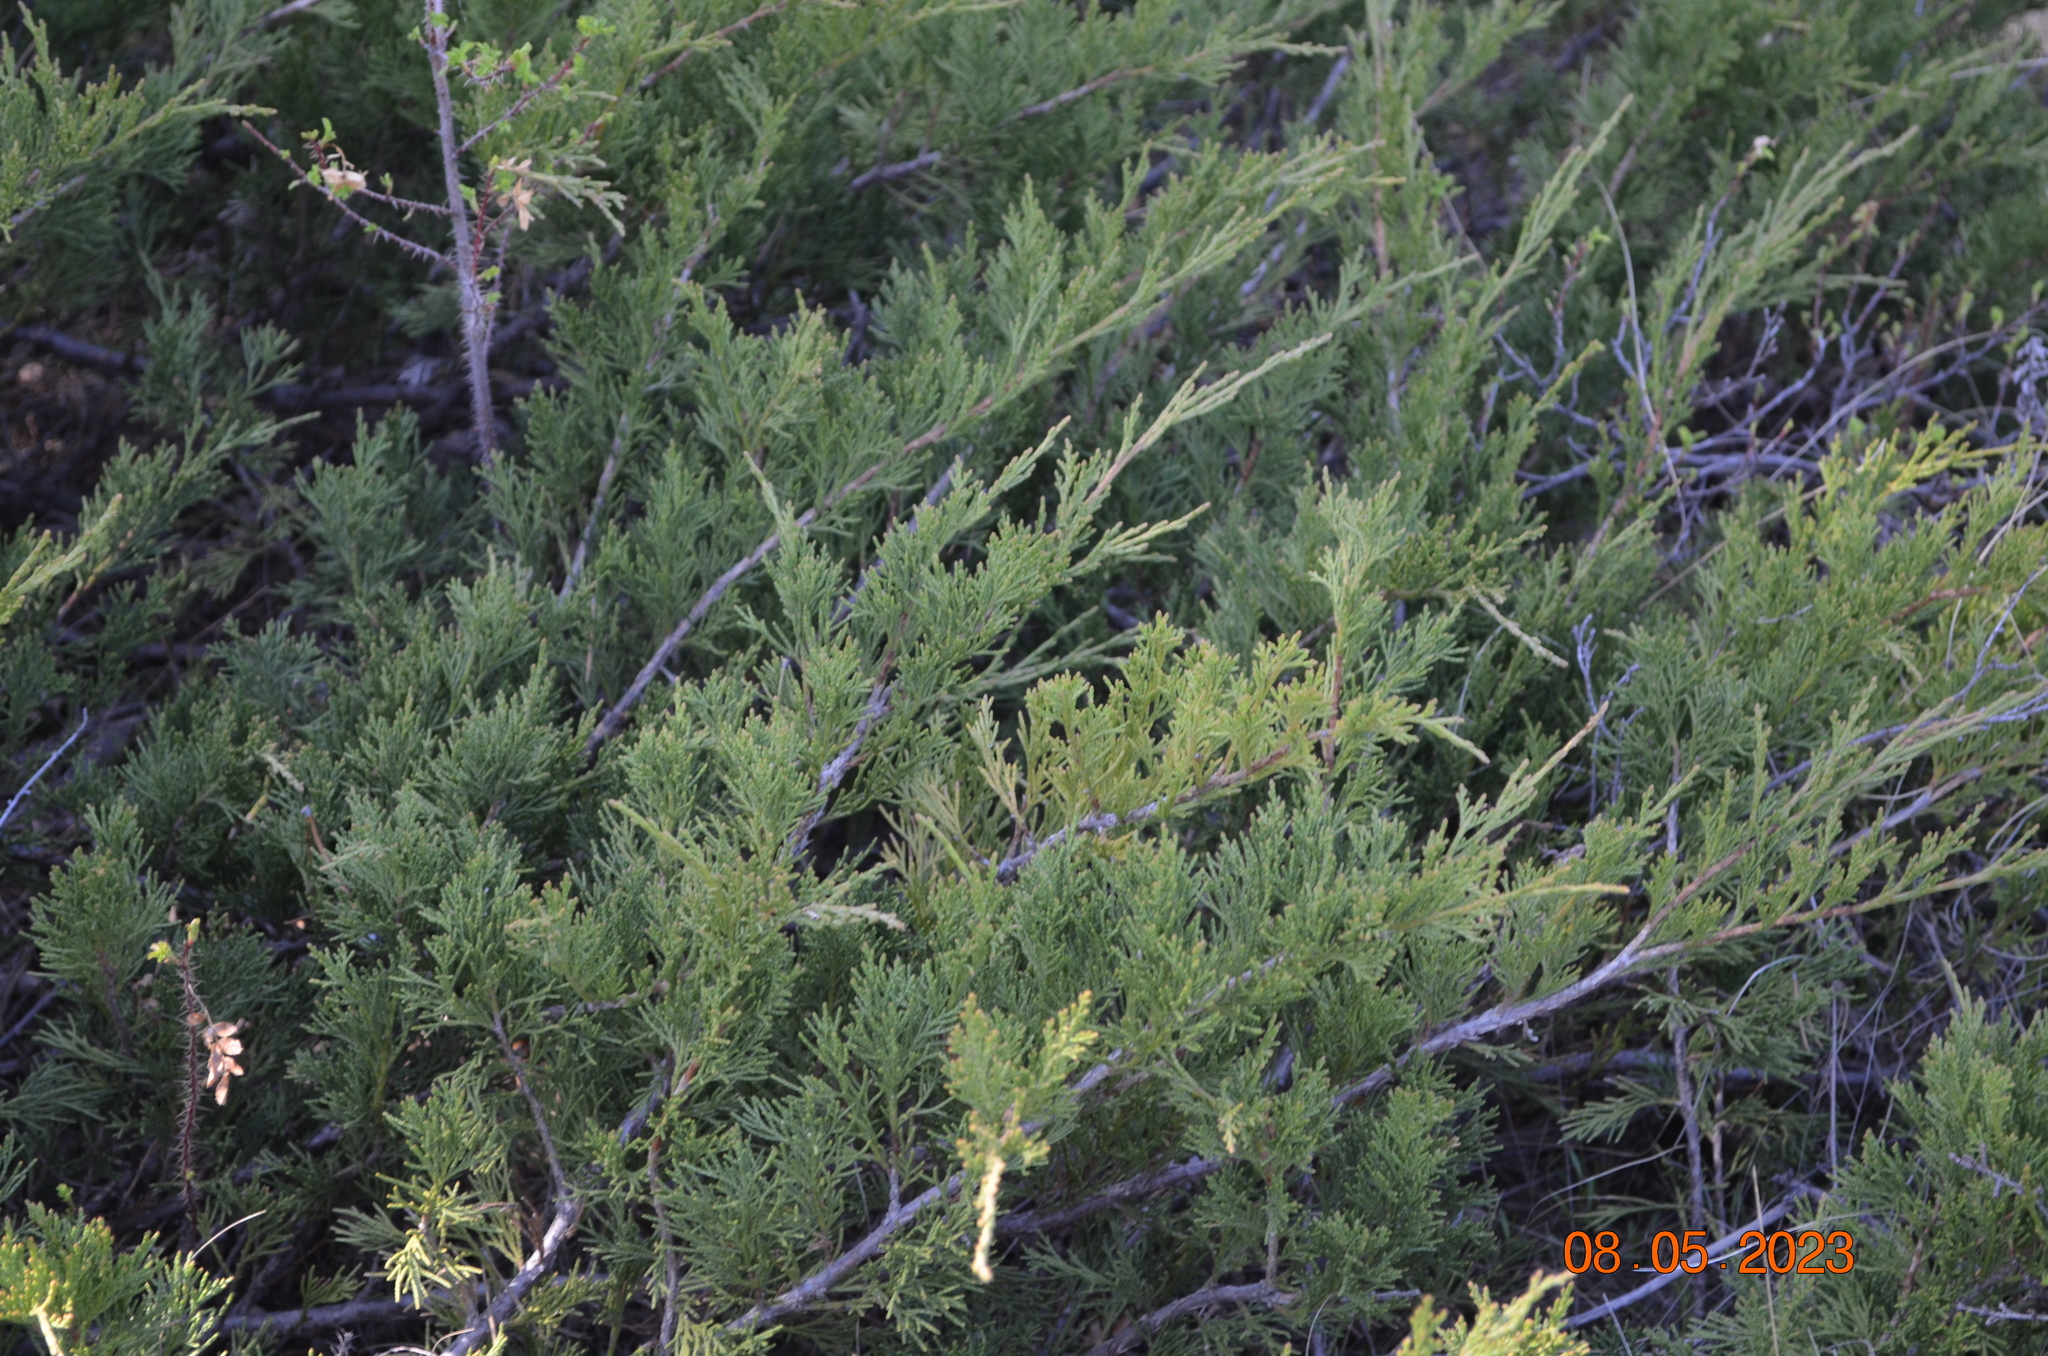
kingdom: Plantae
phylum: Tracheophyta
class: Pinopsida
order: Pinales
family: Cupressaceae
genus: Juniperus
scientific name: Juniperus sabina
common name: Savin
